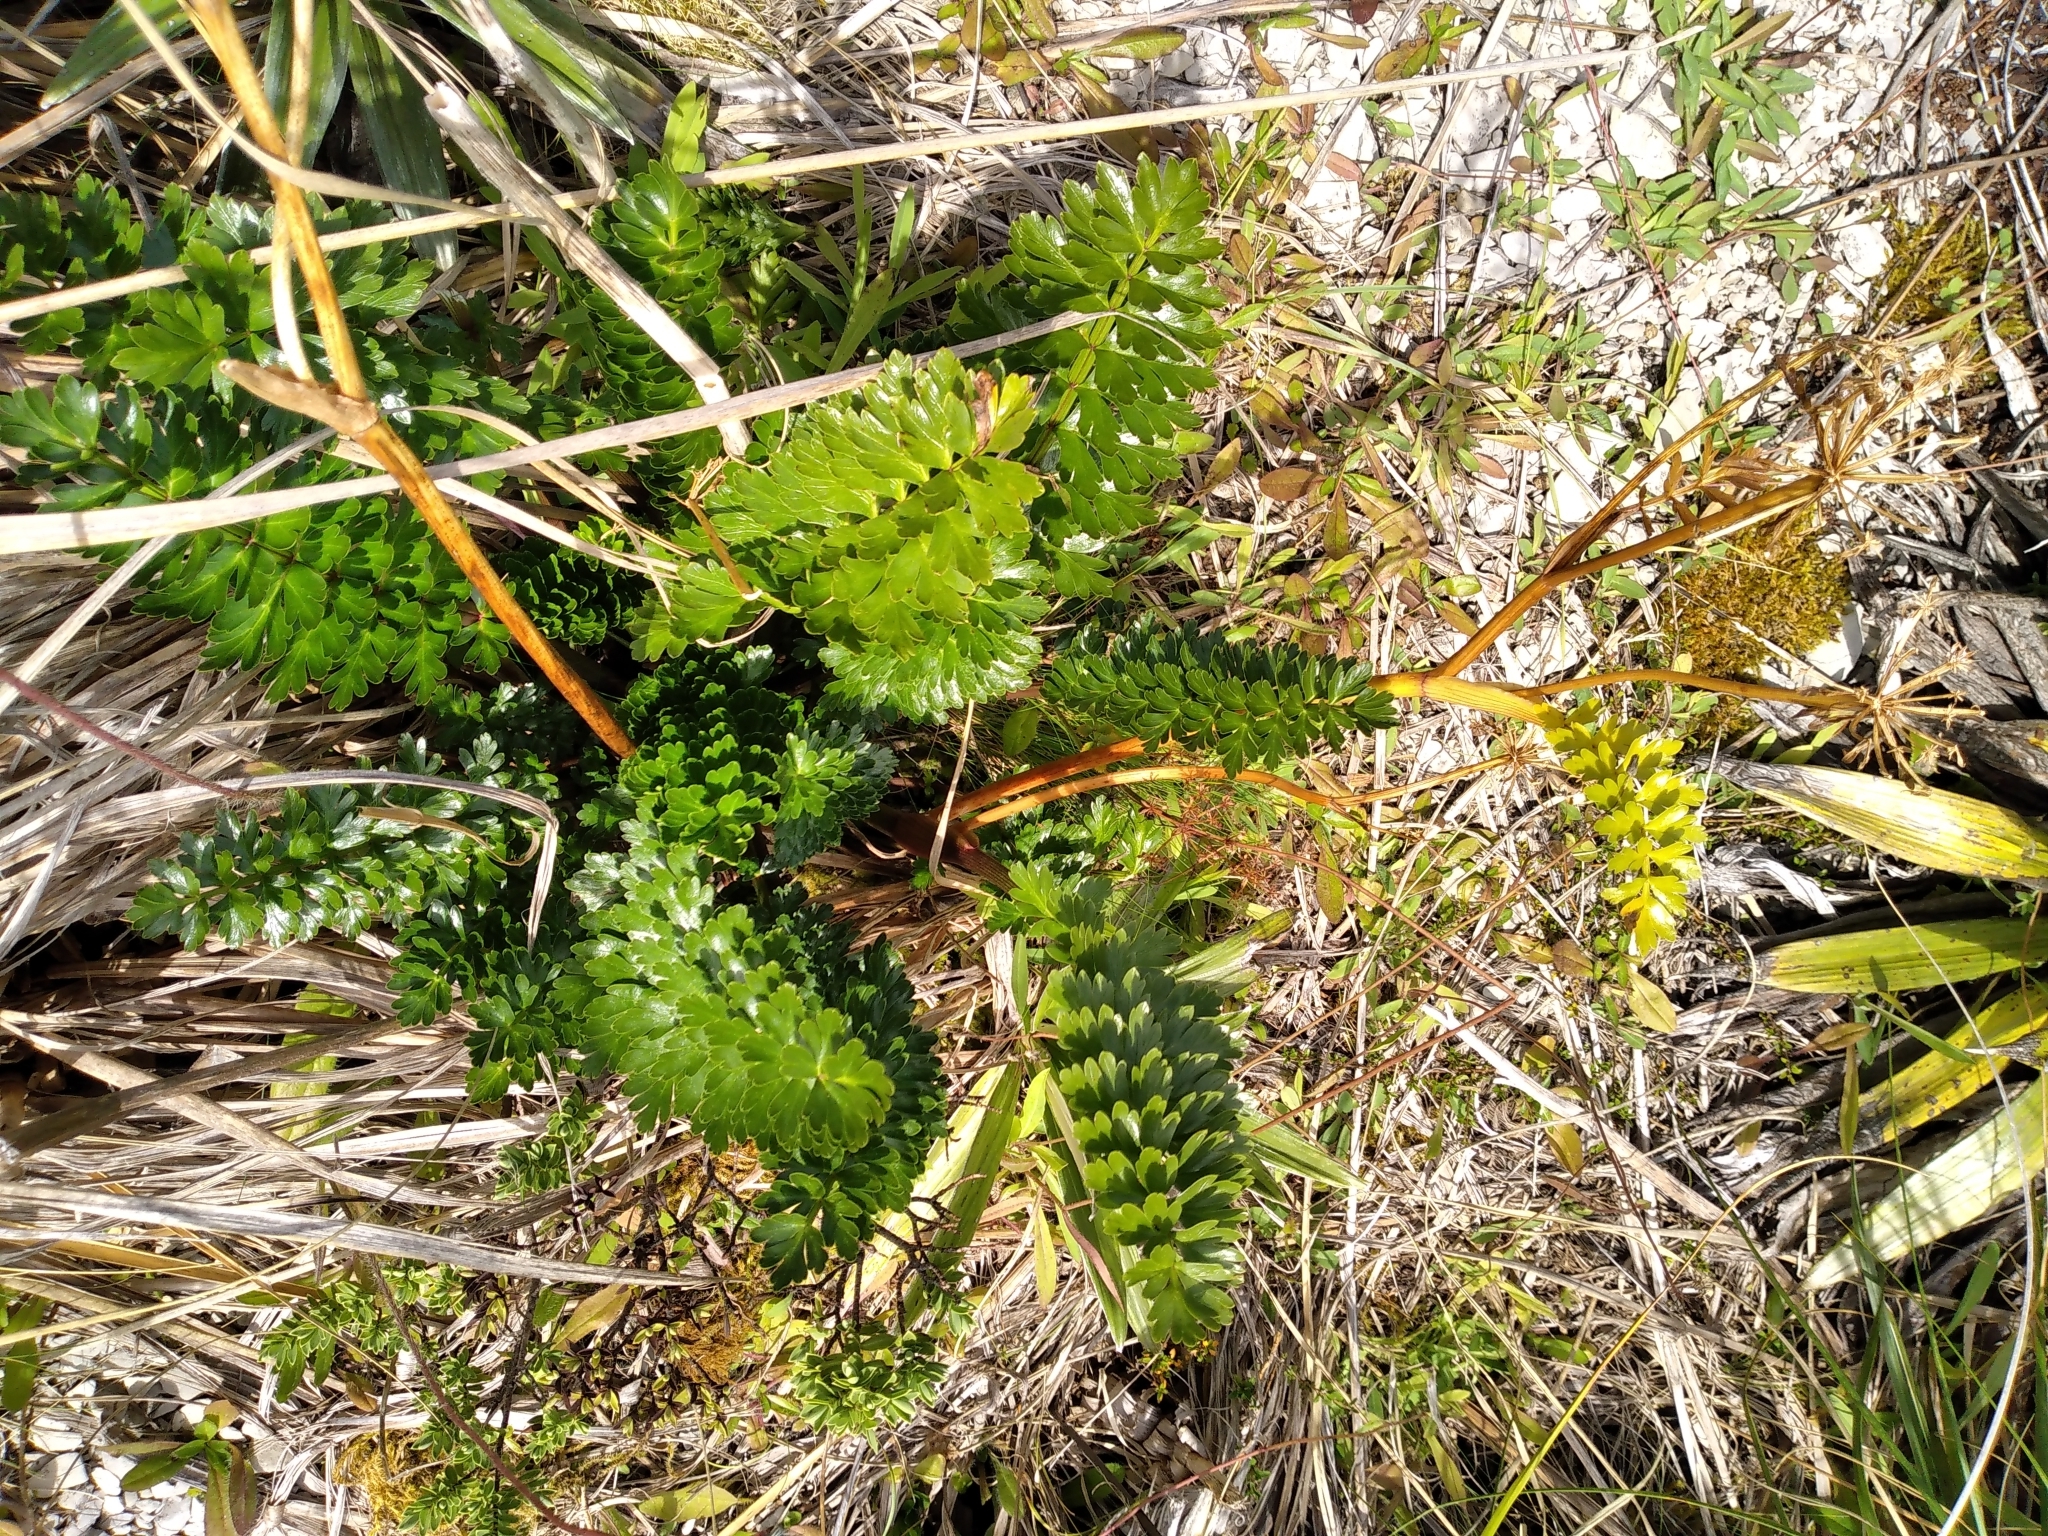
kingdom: Plantae
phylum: Tracheophyta
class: Magnoliopsida
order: Apiales
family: Apiaceae
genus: Anisotome
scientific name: Anisotome pilifera
